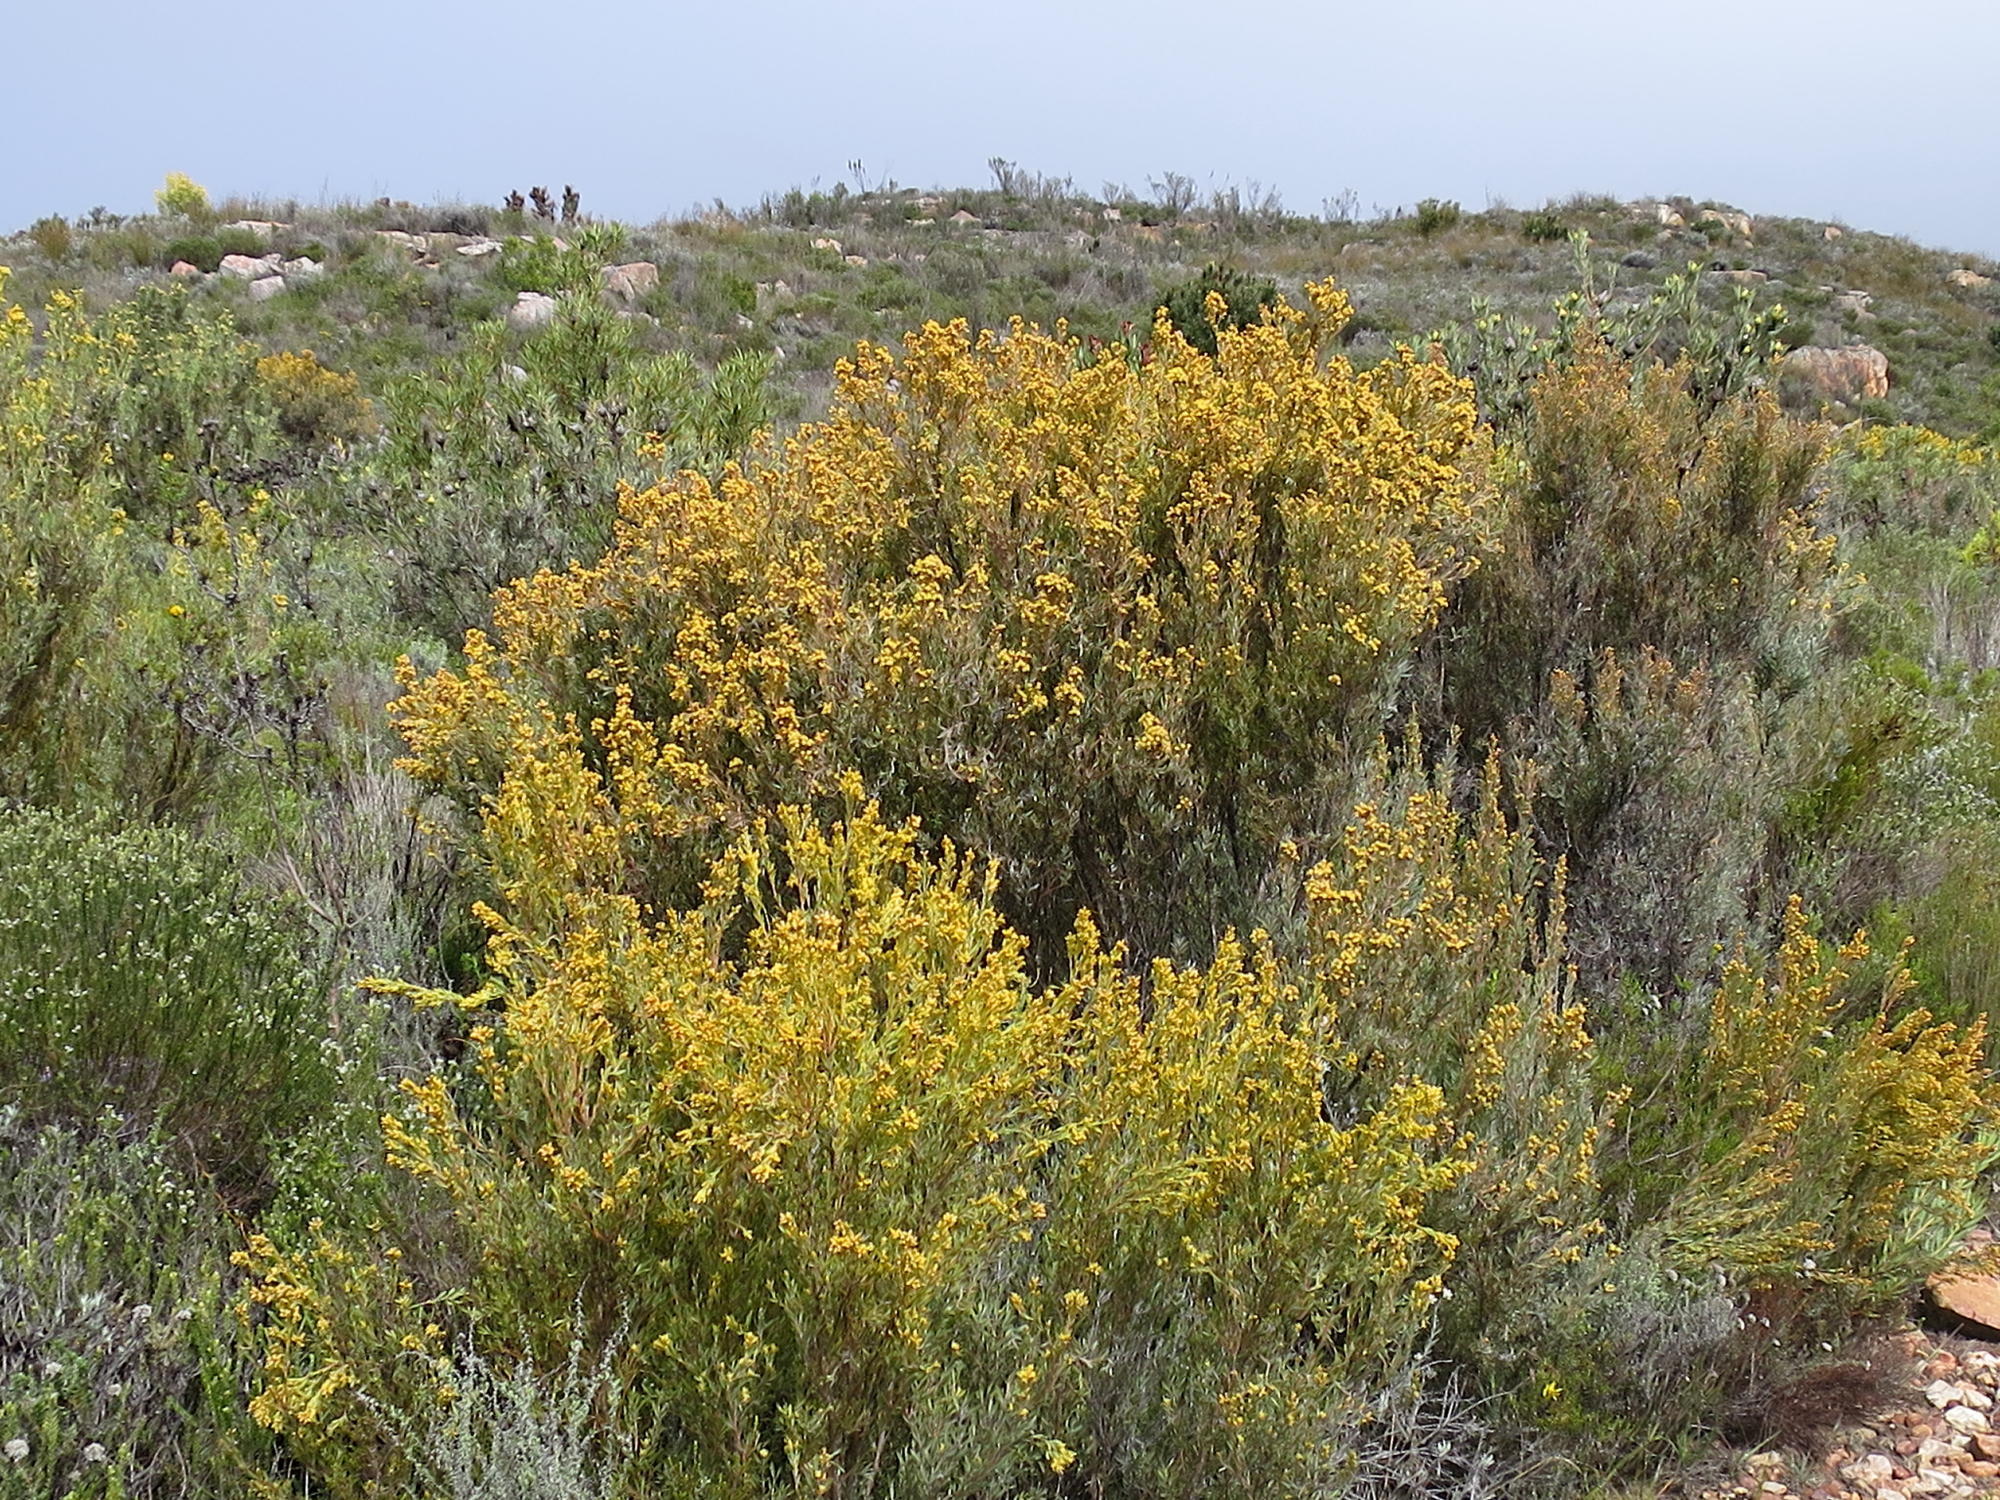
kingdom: Plantae
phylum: Tracheophyta
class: Magnoliopsida
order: Proteales
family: Proteaceae
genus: Leucadendron
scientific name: Leucadendron rubrum
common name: Spinning top
